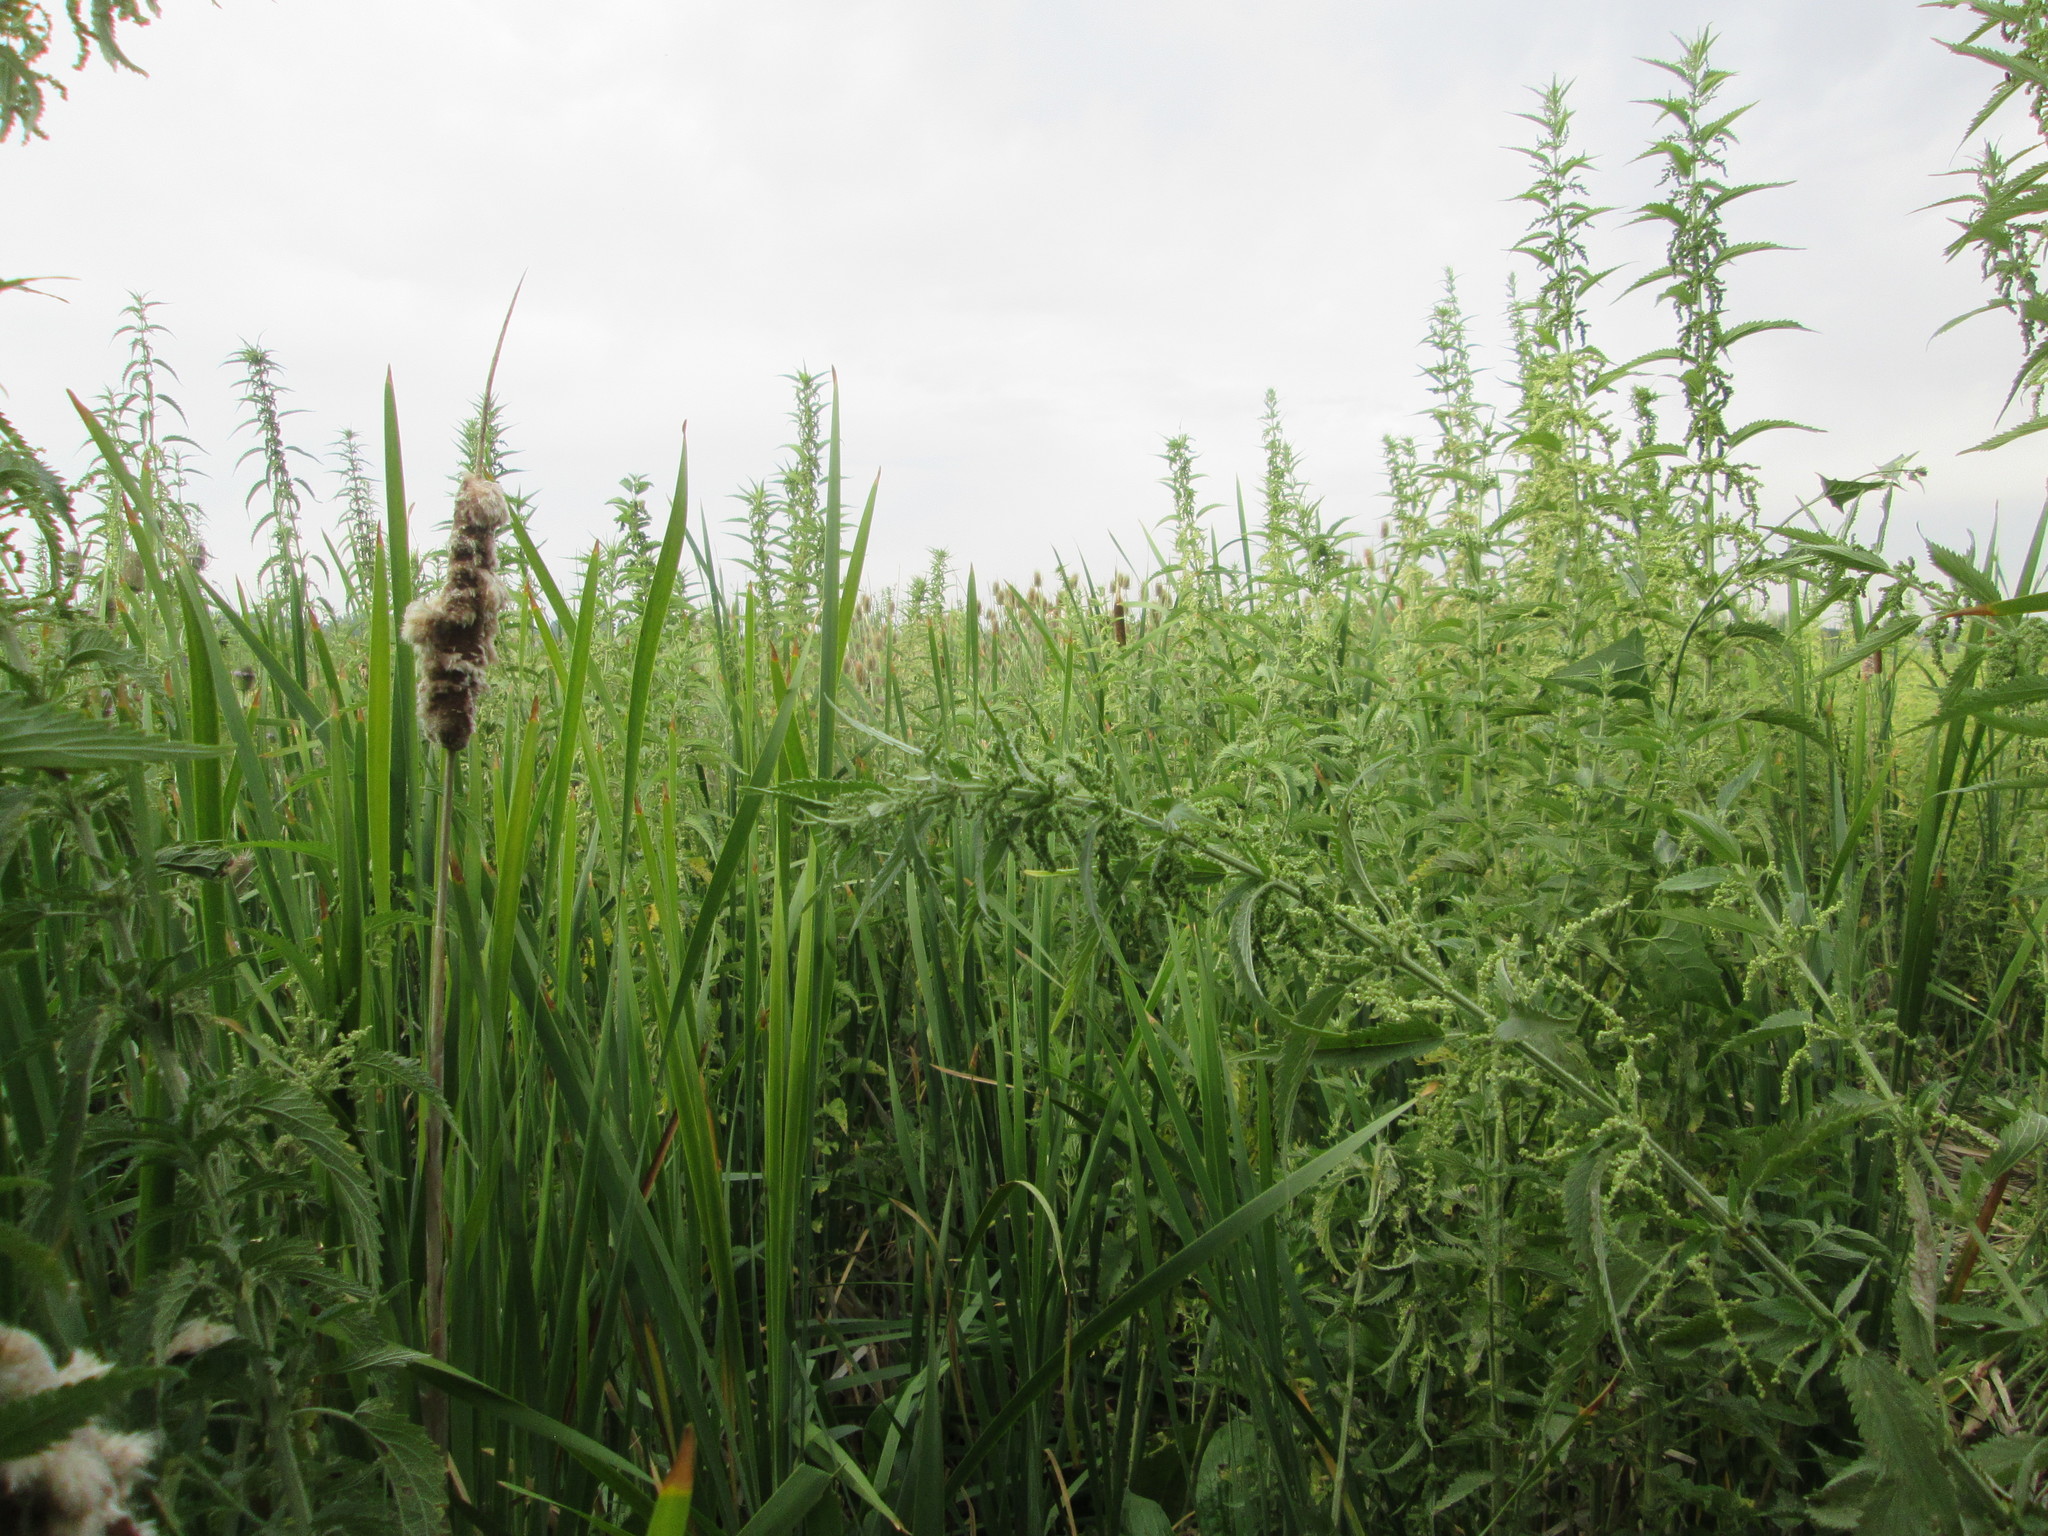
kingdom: Plantae
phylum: Tracheophyta
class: Magnoliopsida
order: Rosales
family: Urticaceae
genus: Urtica
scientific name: Urtica dioica
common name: Common nettle
